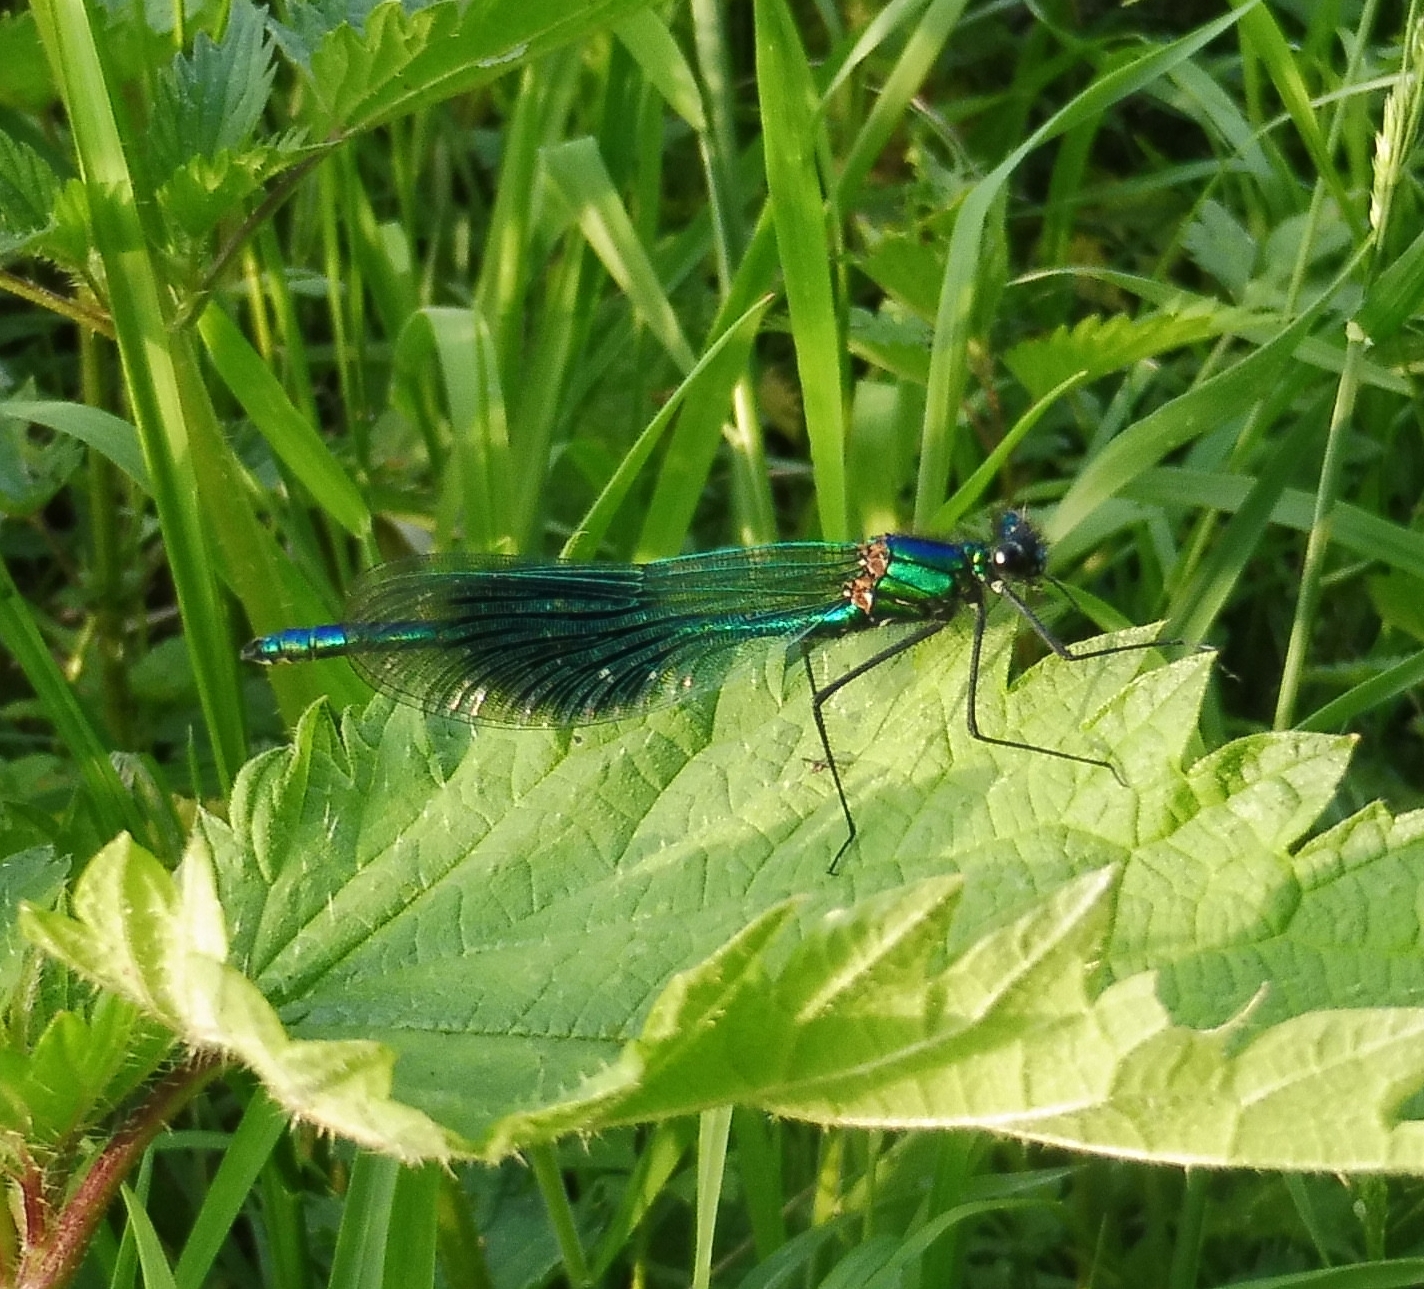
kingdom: Animalia
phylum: Arthropoda
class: Insecta
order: Odonata
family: Calopterygidae
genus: Calopteryx
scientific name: Calopteryx splendens
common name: Banded demoiselle
